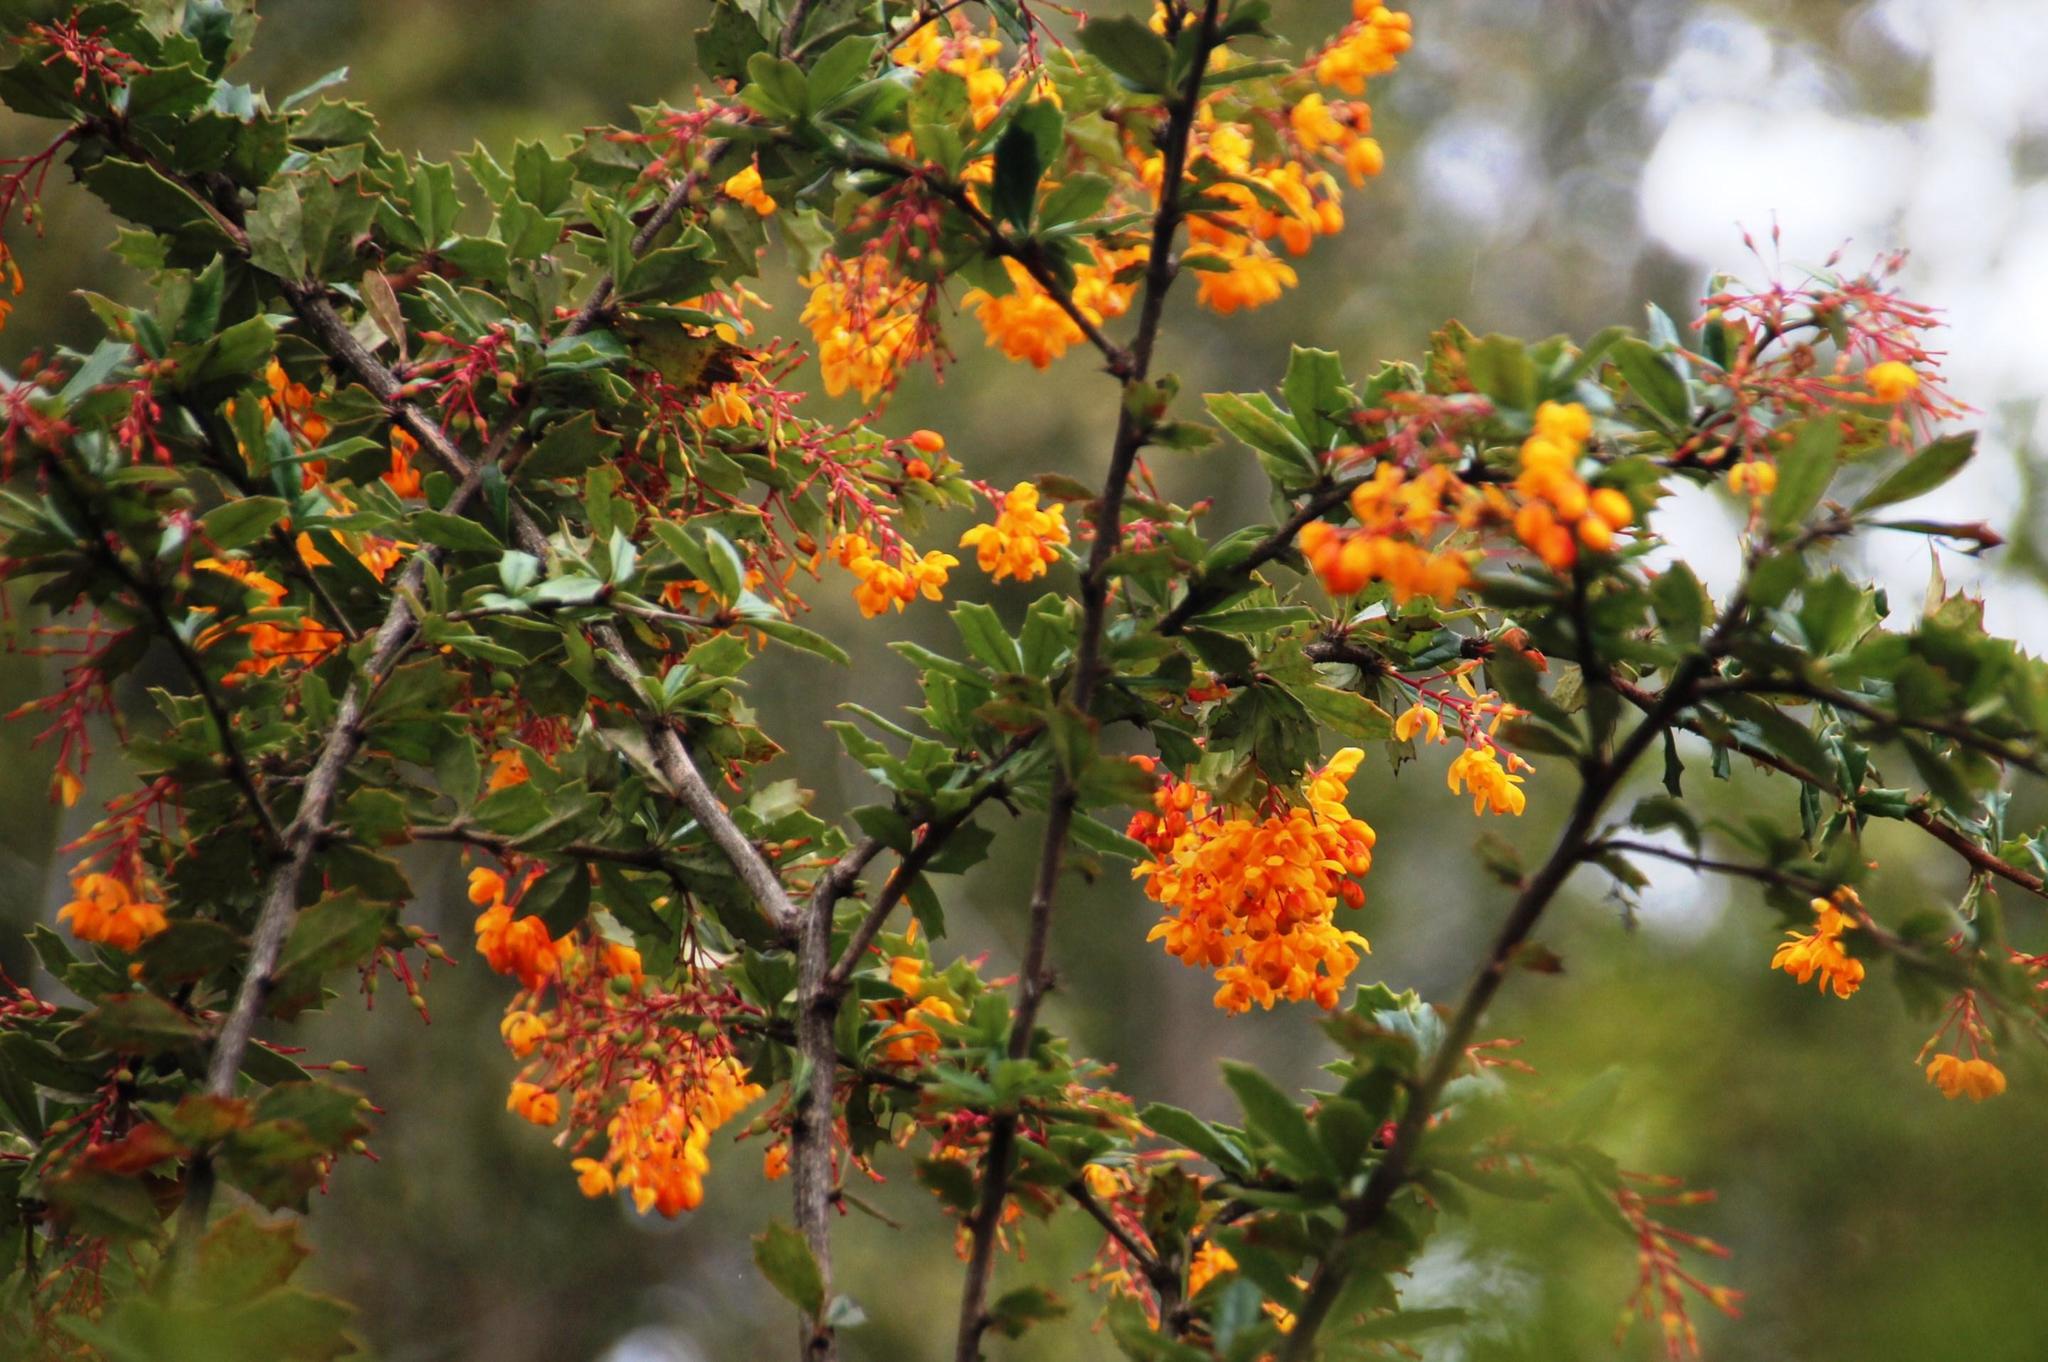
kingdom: Plantae
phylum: Tracheophyta
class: Magnoliopsida
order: Ranunculales
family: Berberidaceae
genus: Berberis
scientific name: Berberis darwinii
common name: Darwin's barberry
